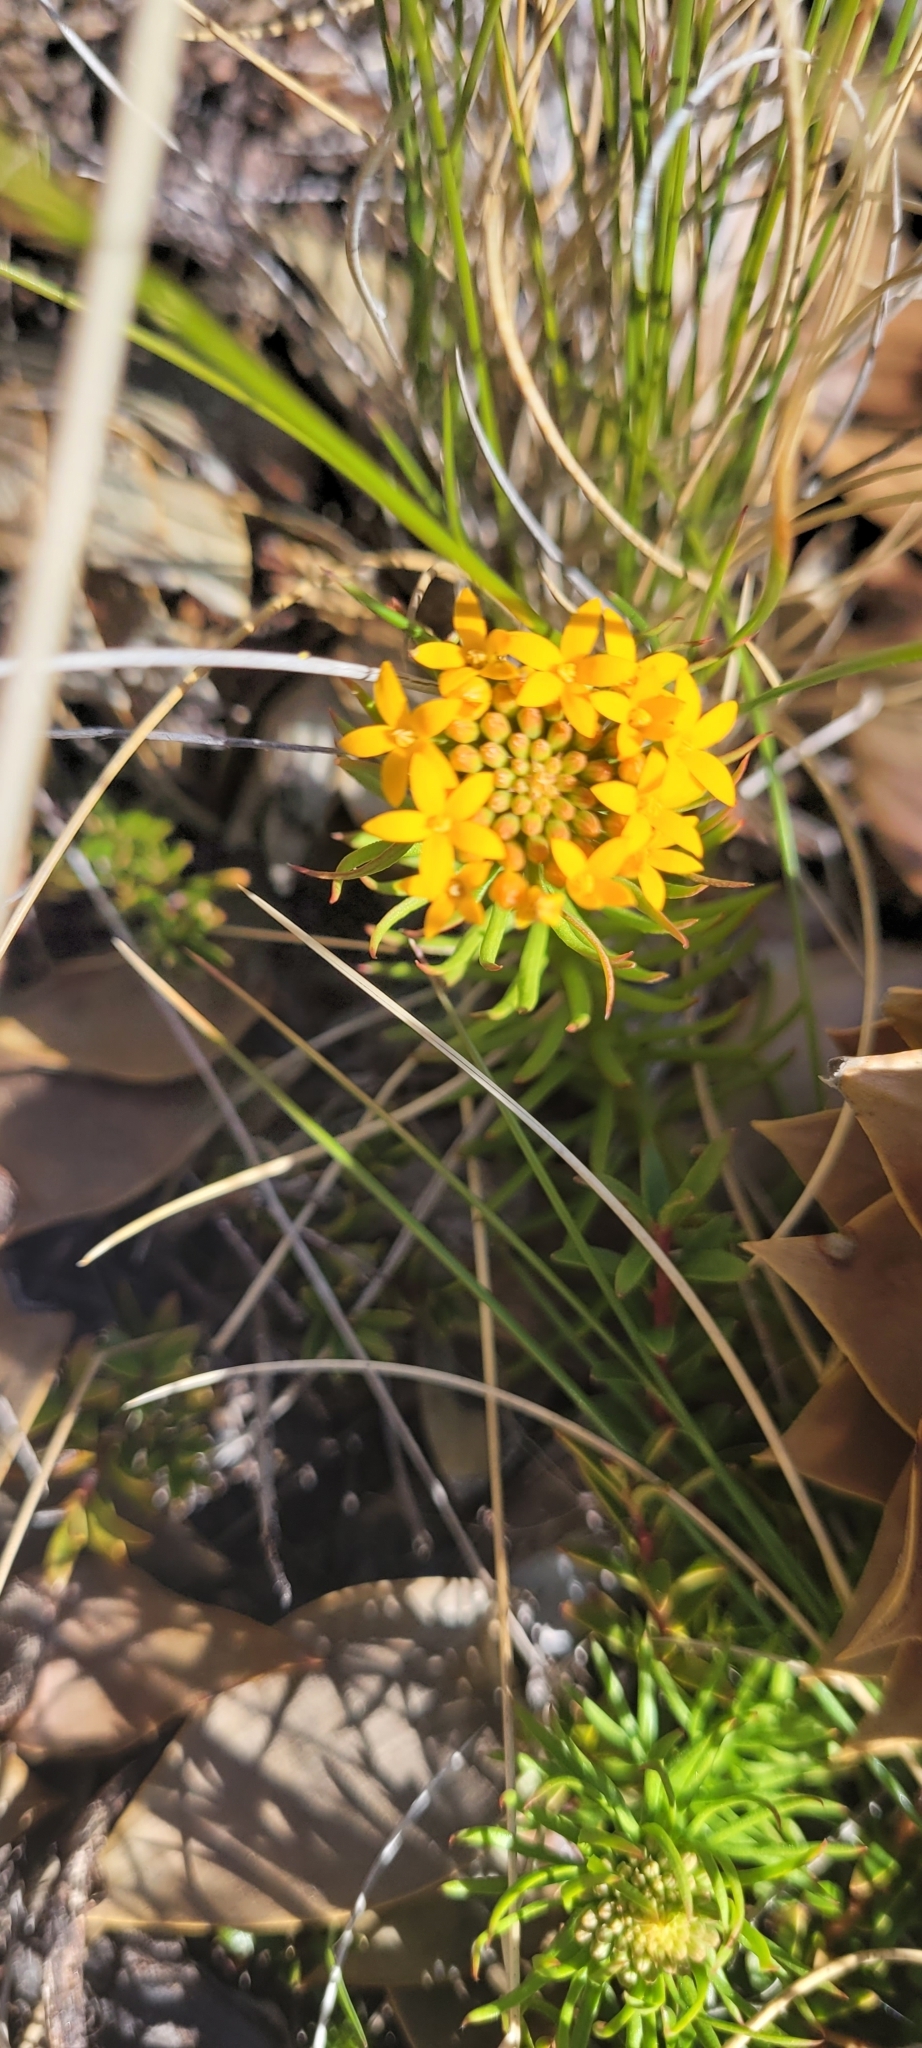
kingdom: Plantae
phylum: Tracheophyta
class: Magnoliopsida
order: Santalales
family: Schoepfiaceae
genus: Quinchamalium
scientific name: Quinchamalium chilense
